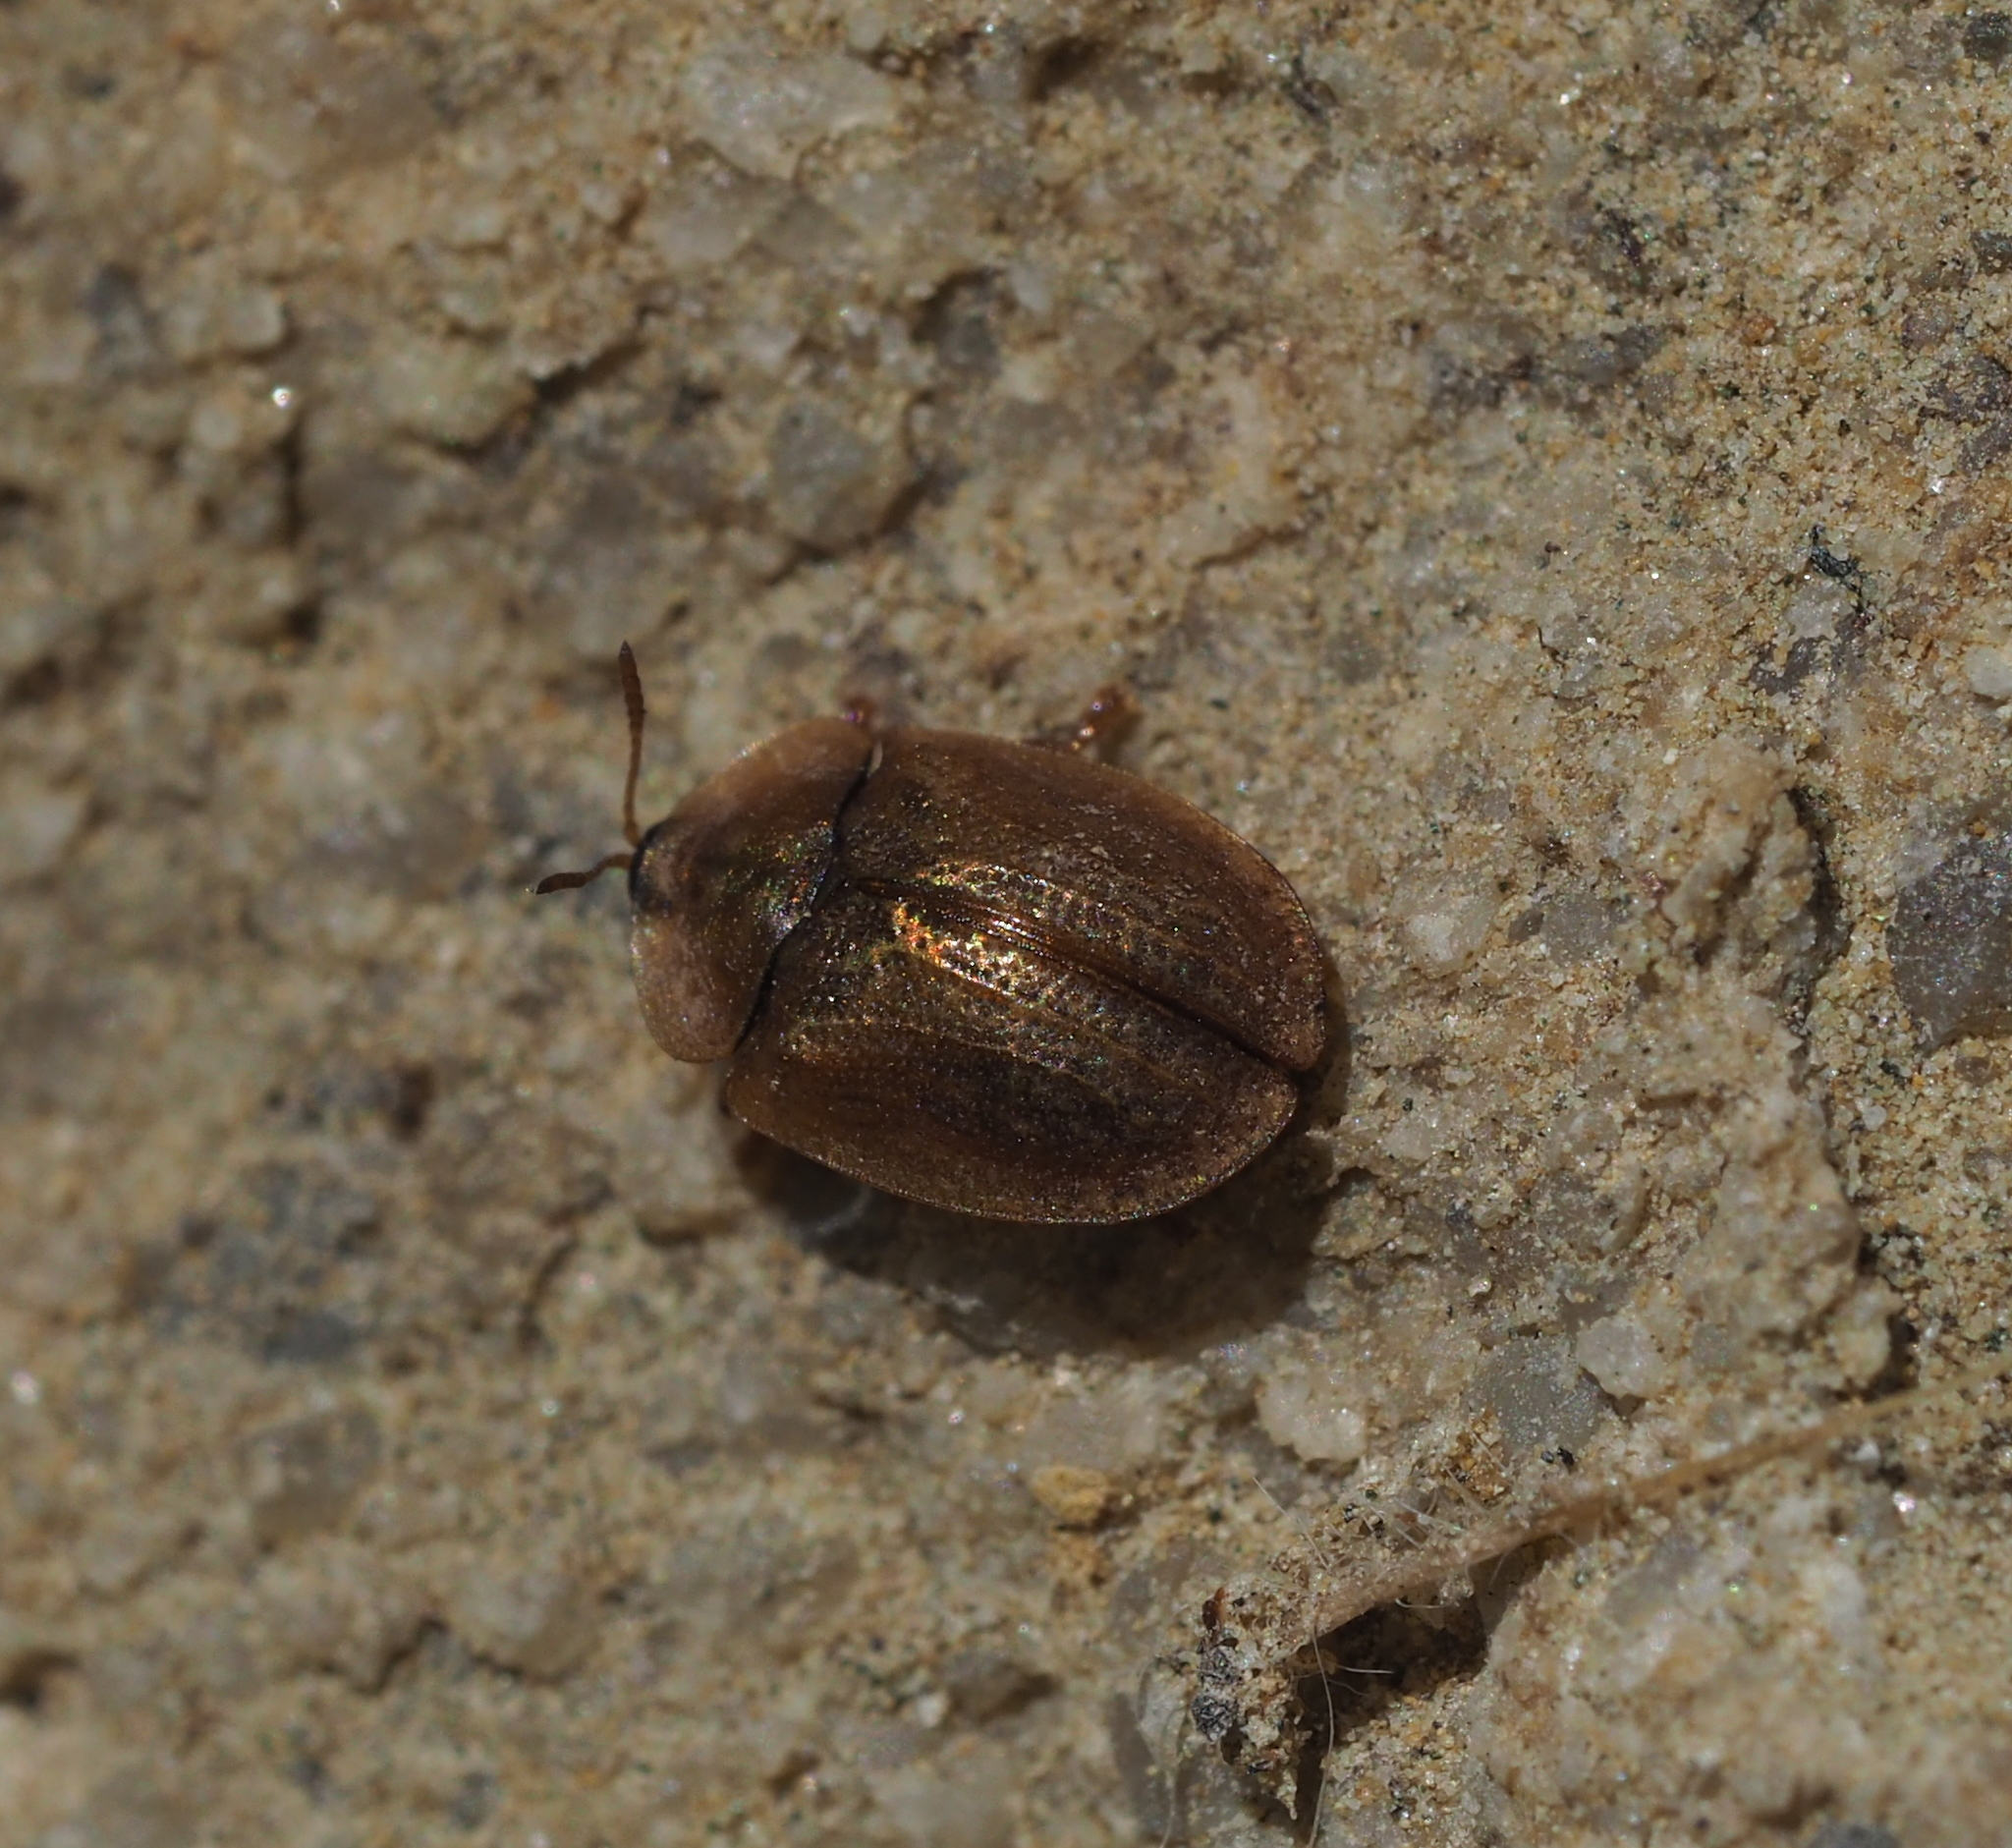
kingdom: Animalia
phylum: Arthropoda
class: Insecta
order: Coleoptera
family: Chrysomelidae
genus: Hypocassida
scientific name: Hypocassida subferruginea
